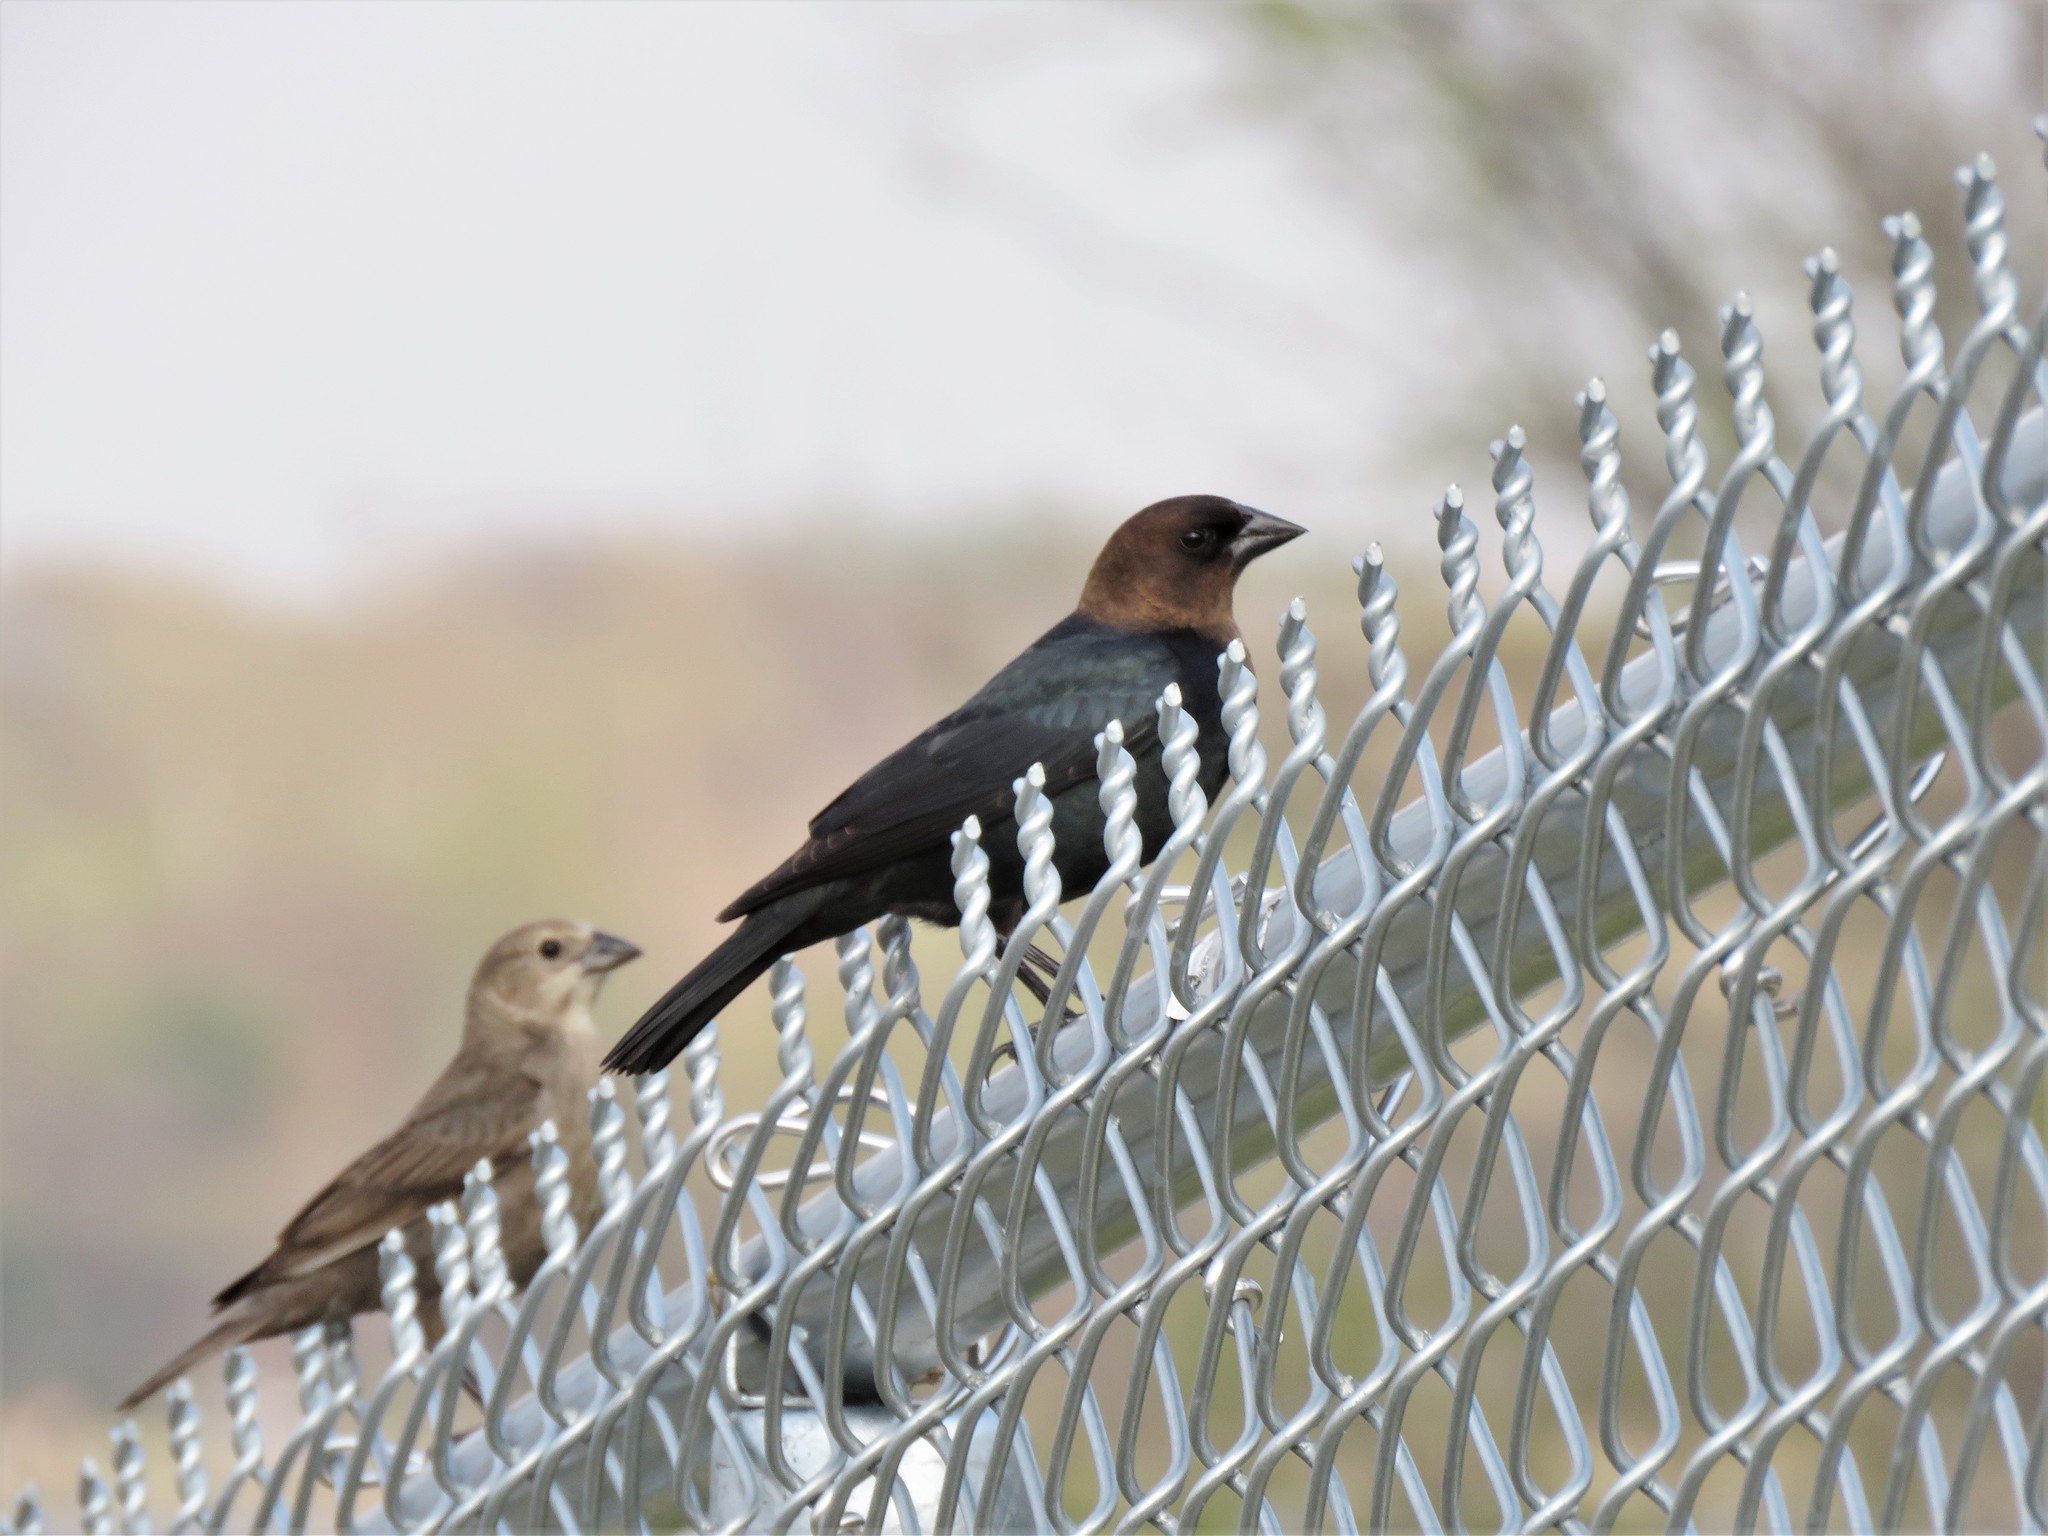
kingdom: Animalia
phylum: Chordata
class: Aves
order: Passeriformes
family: Icteridae
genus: Molothrus
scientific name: Molothrus ater
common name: Brown-headed cowbird
